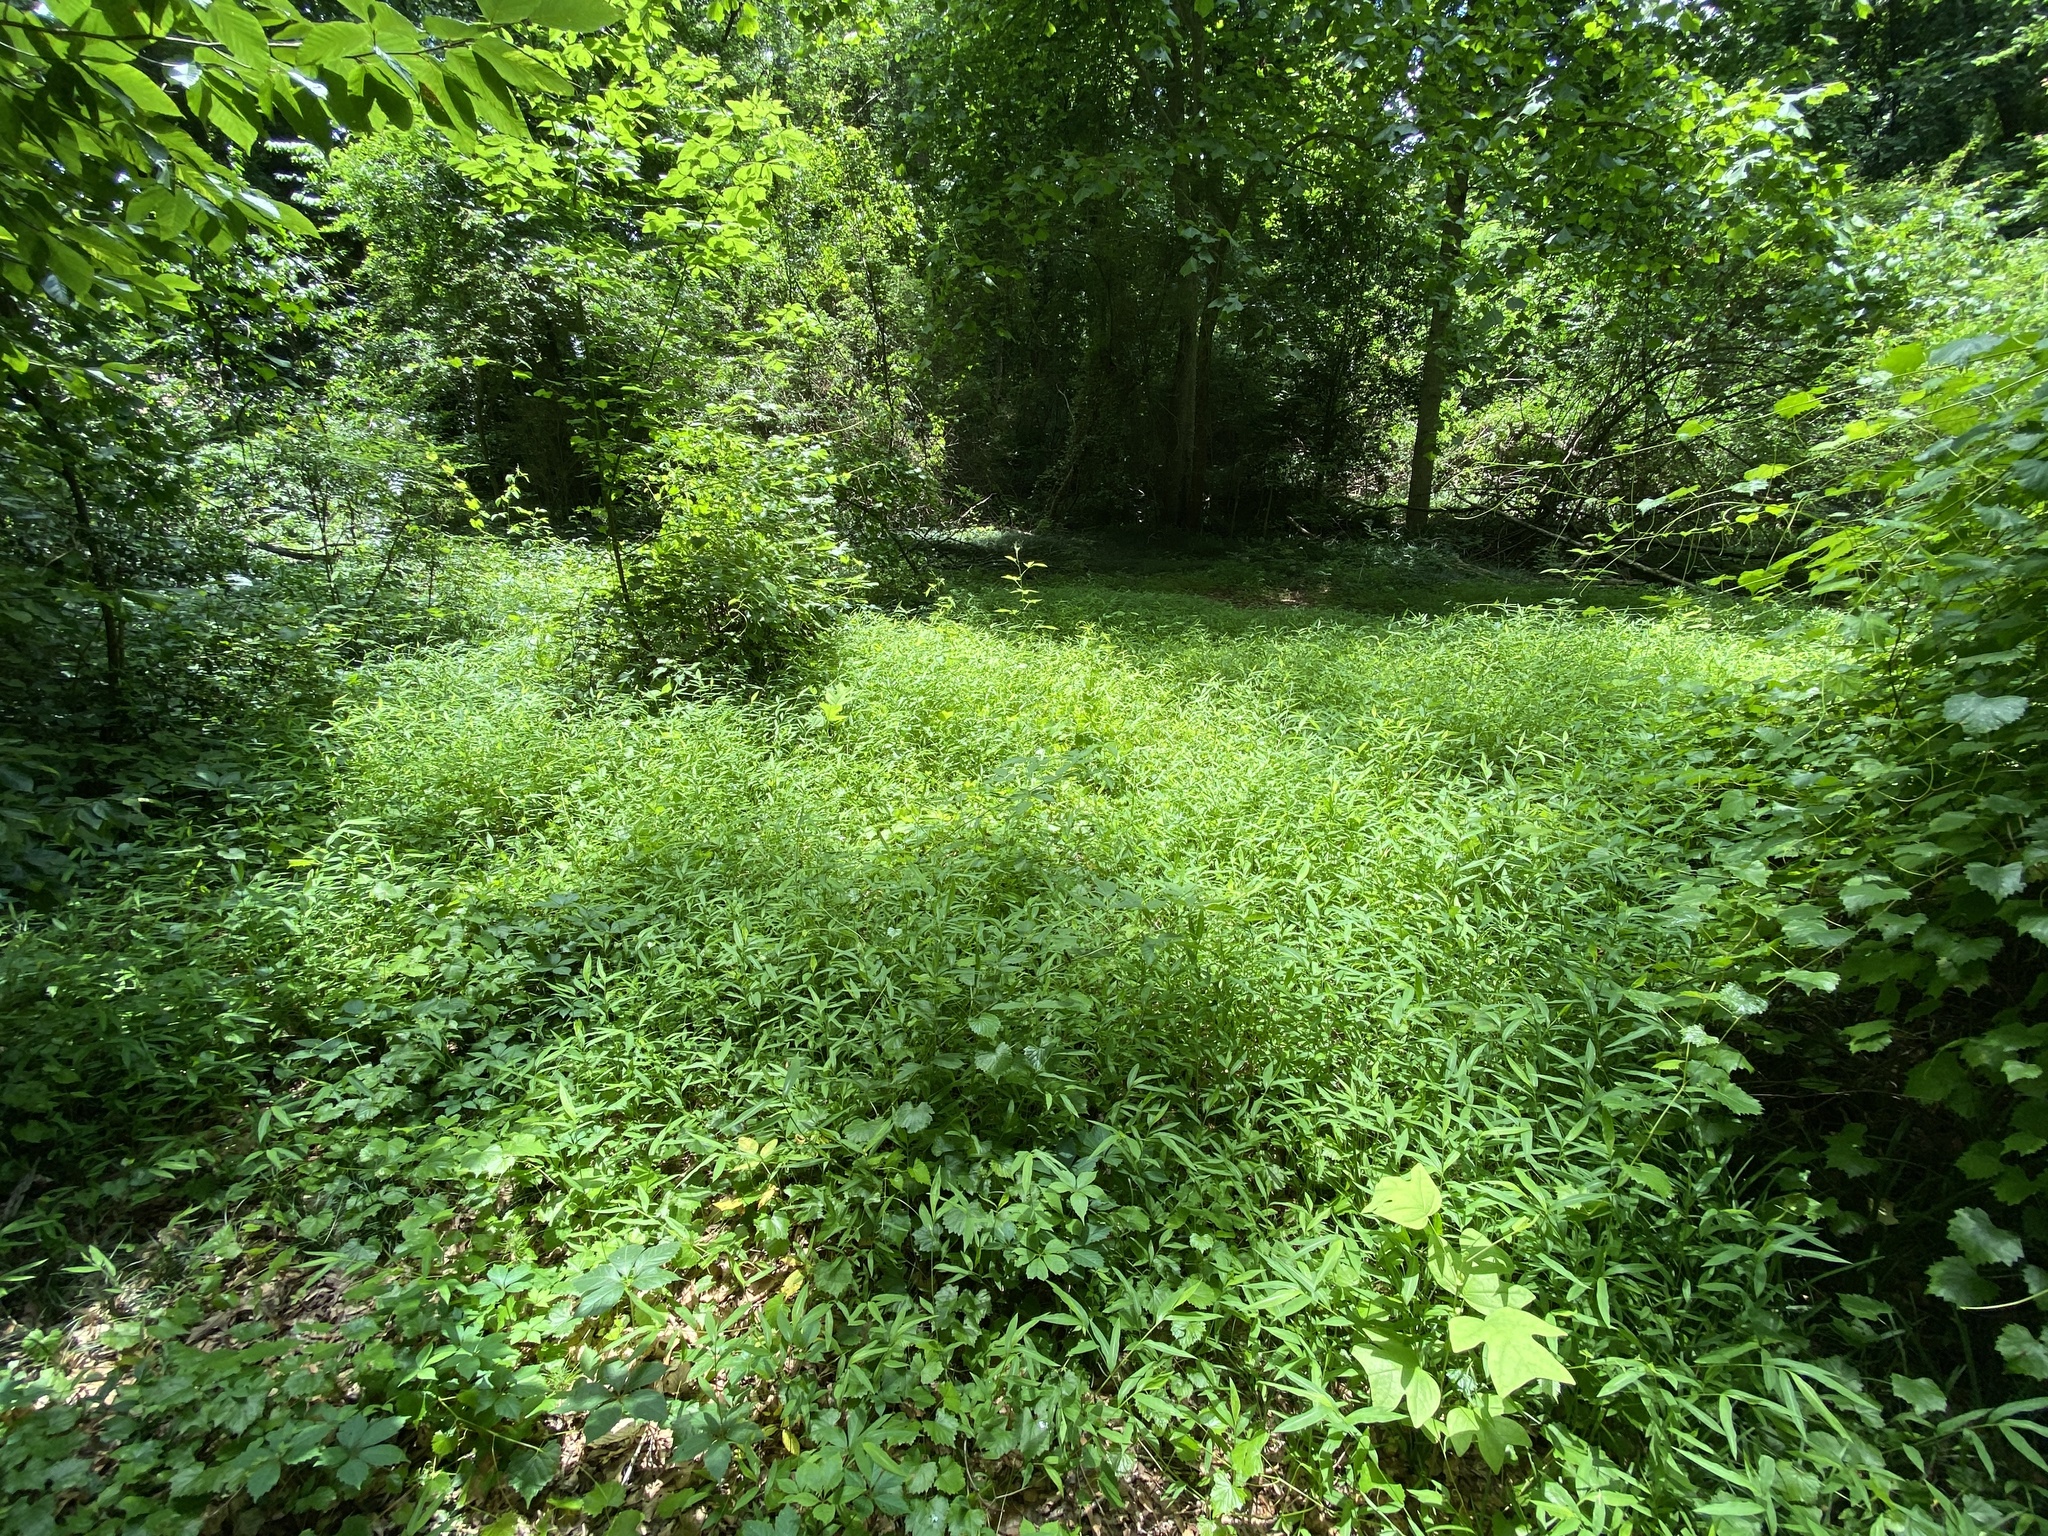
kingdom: Plantae
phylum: Tracheophyta
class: Liliopsida
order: Poales
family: Poaceae
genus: Microstegium
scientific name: Microstegium vimineum
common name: Japanese stiltgrass
